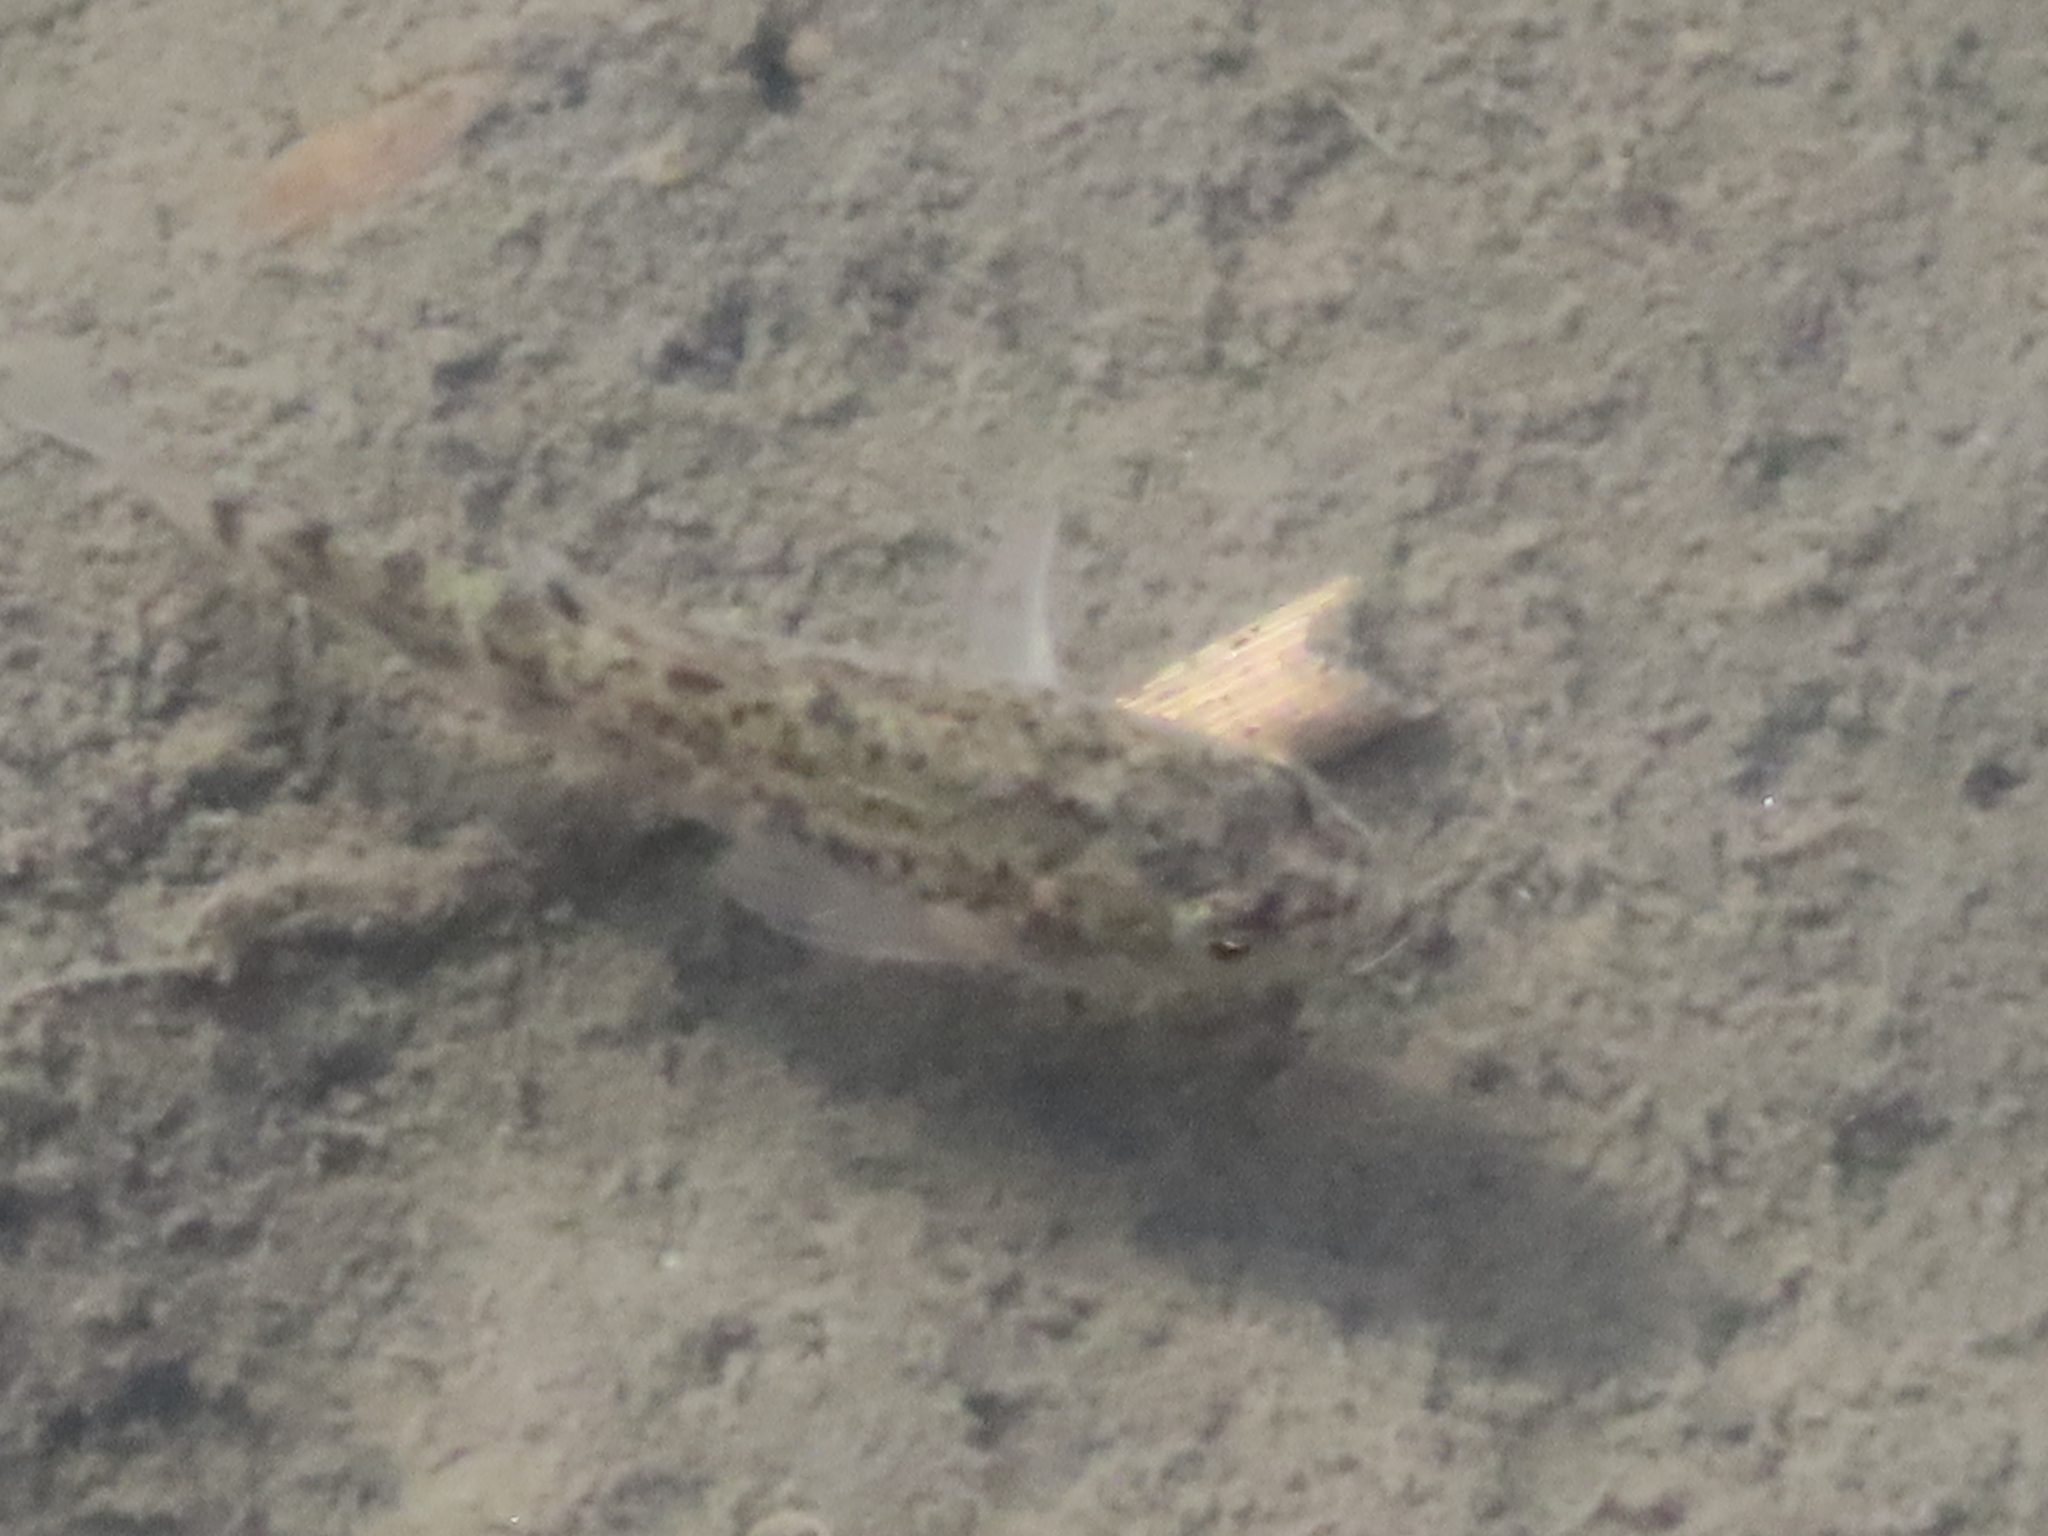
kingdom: Animalia
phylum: Chordata
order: Cyprinodontiformes
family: Cyprinodontidae
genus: Cyprinodon
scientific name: Cyprinodon variegatus
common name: Sheepshead minnow
